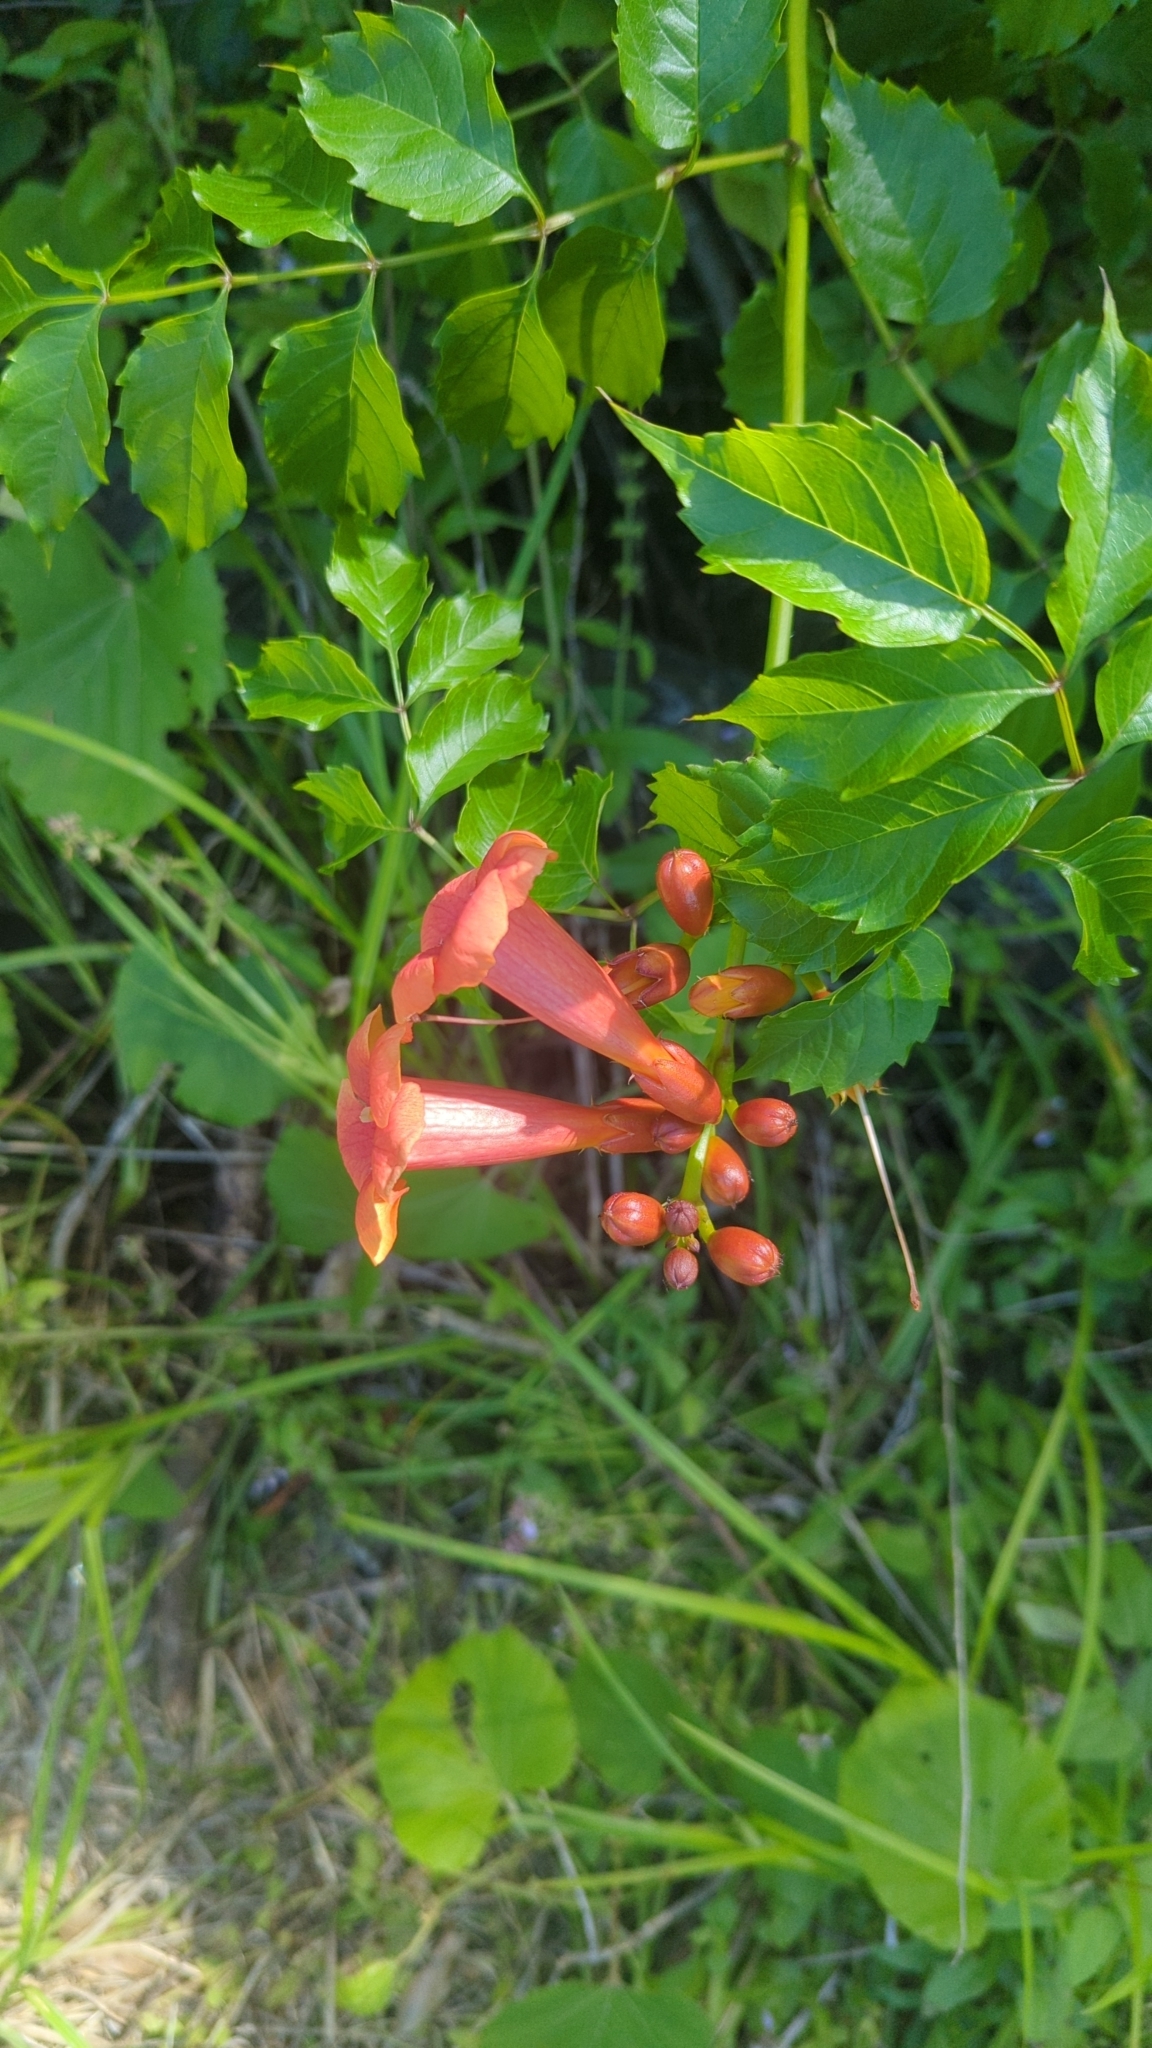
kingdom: Plantae
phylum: Tracheophyta
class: Magnoliopsida
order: Lamiales
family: Bignoniaceae
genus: Campsis
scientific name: Campsis radicans
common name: Trumpet-creeper
